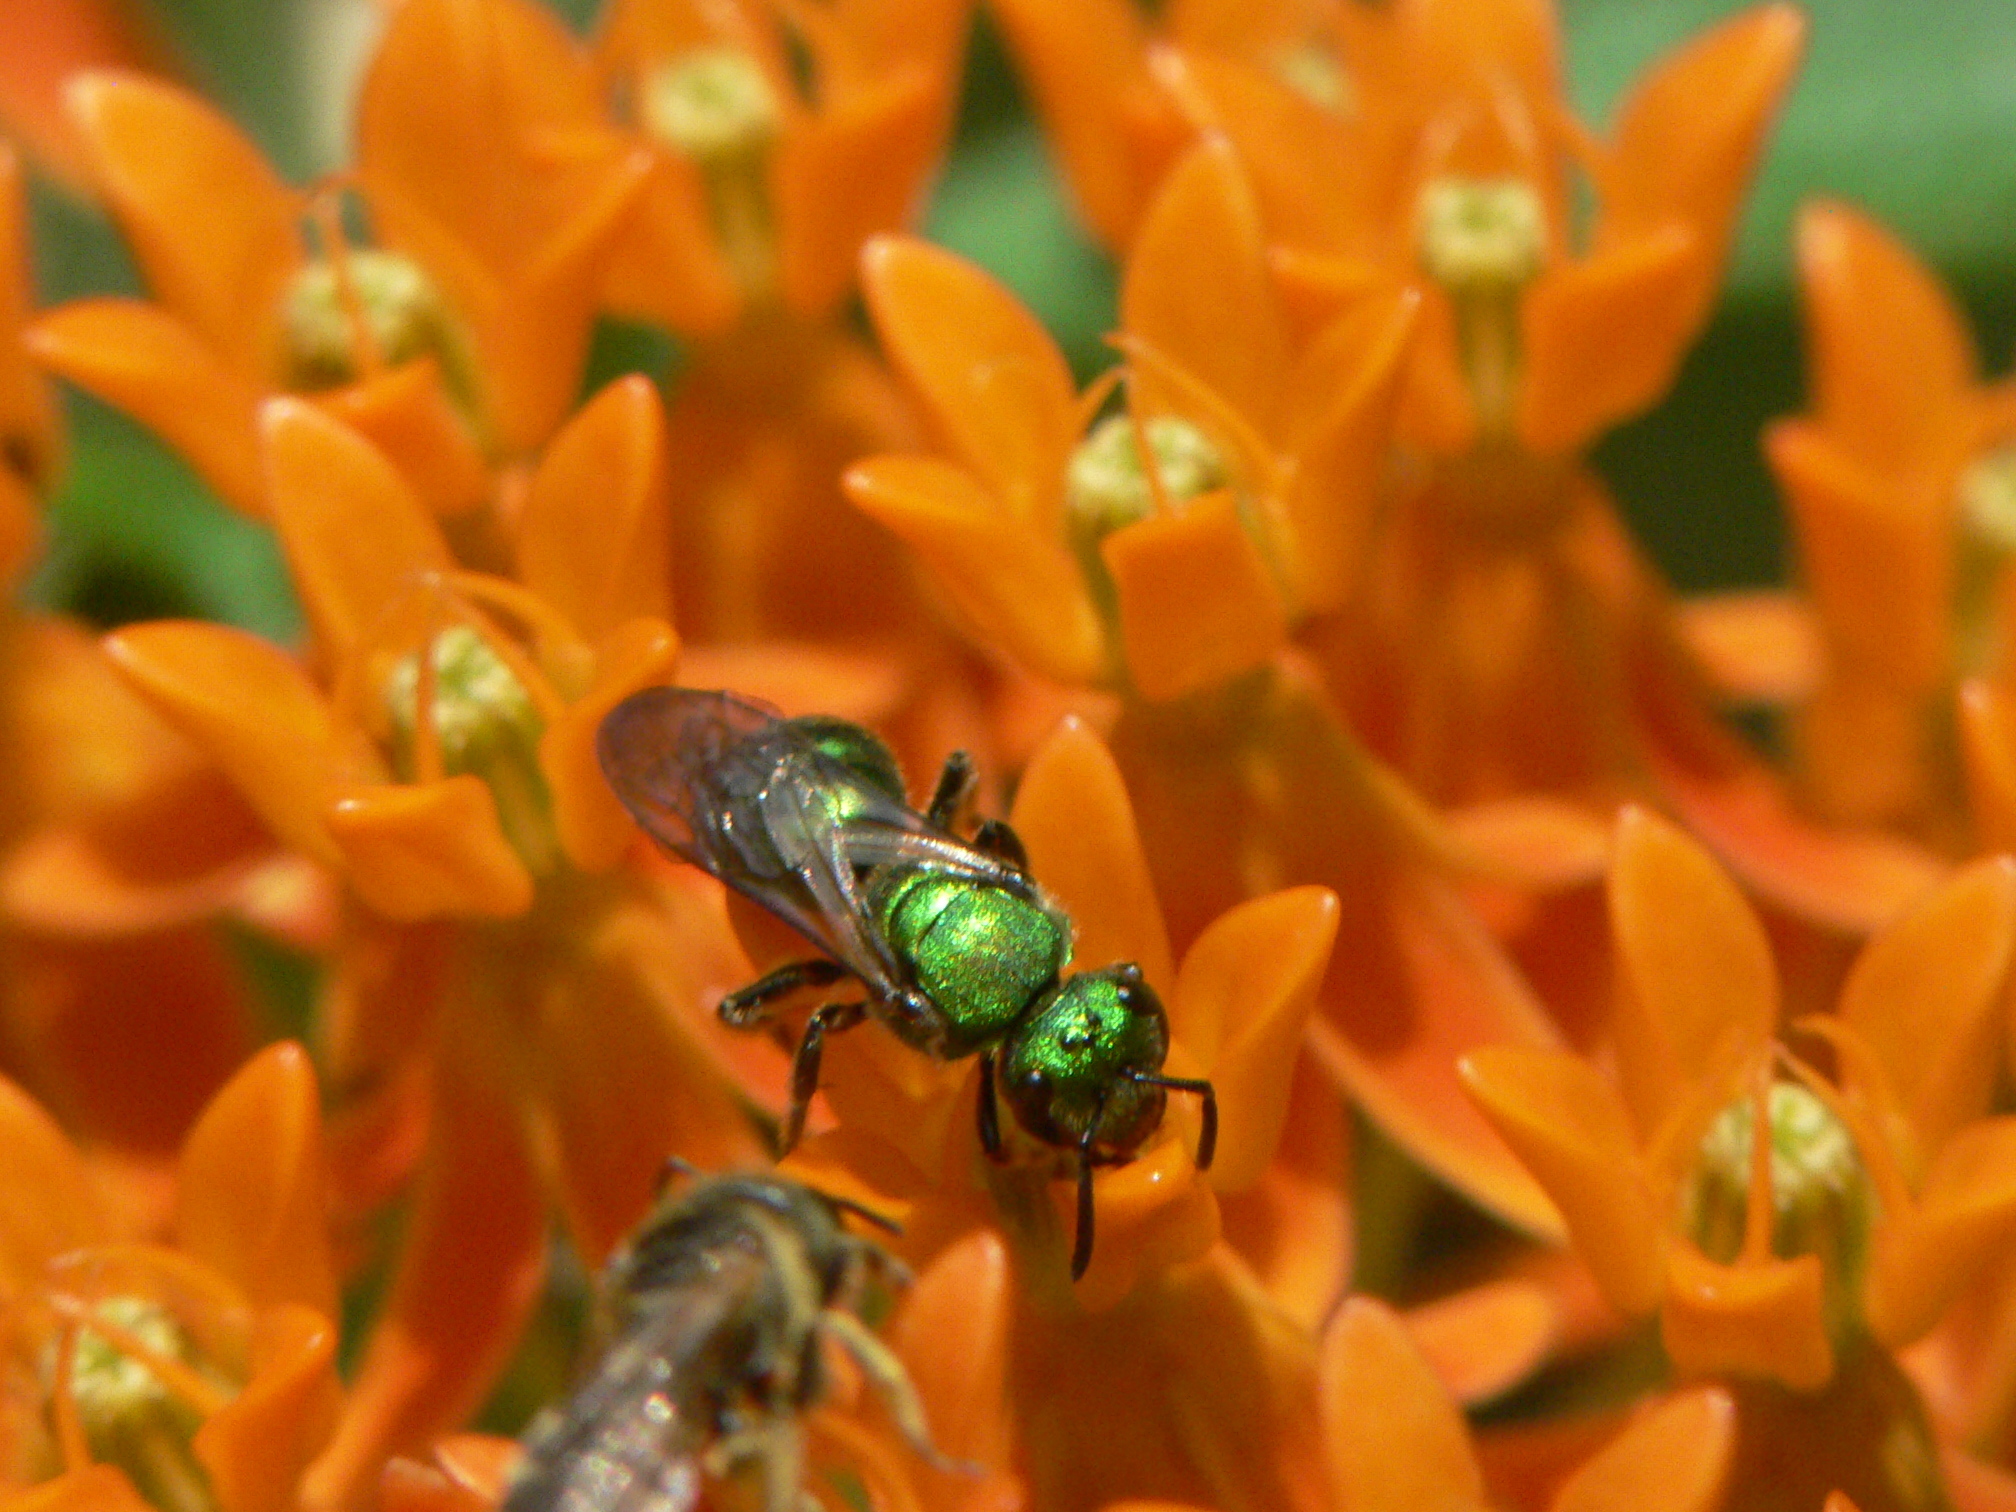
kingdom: Animalia
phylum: Arthropoda
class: Insecta
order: Hymenoptera
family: Halictidae
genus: Augochlora
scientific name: Augochlora pura
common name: Pure green sweat bee
